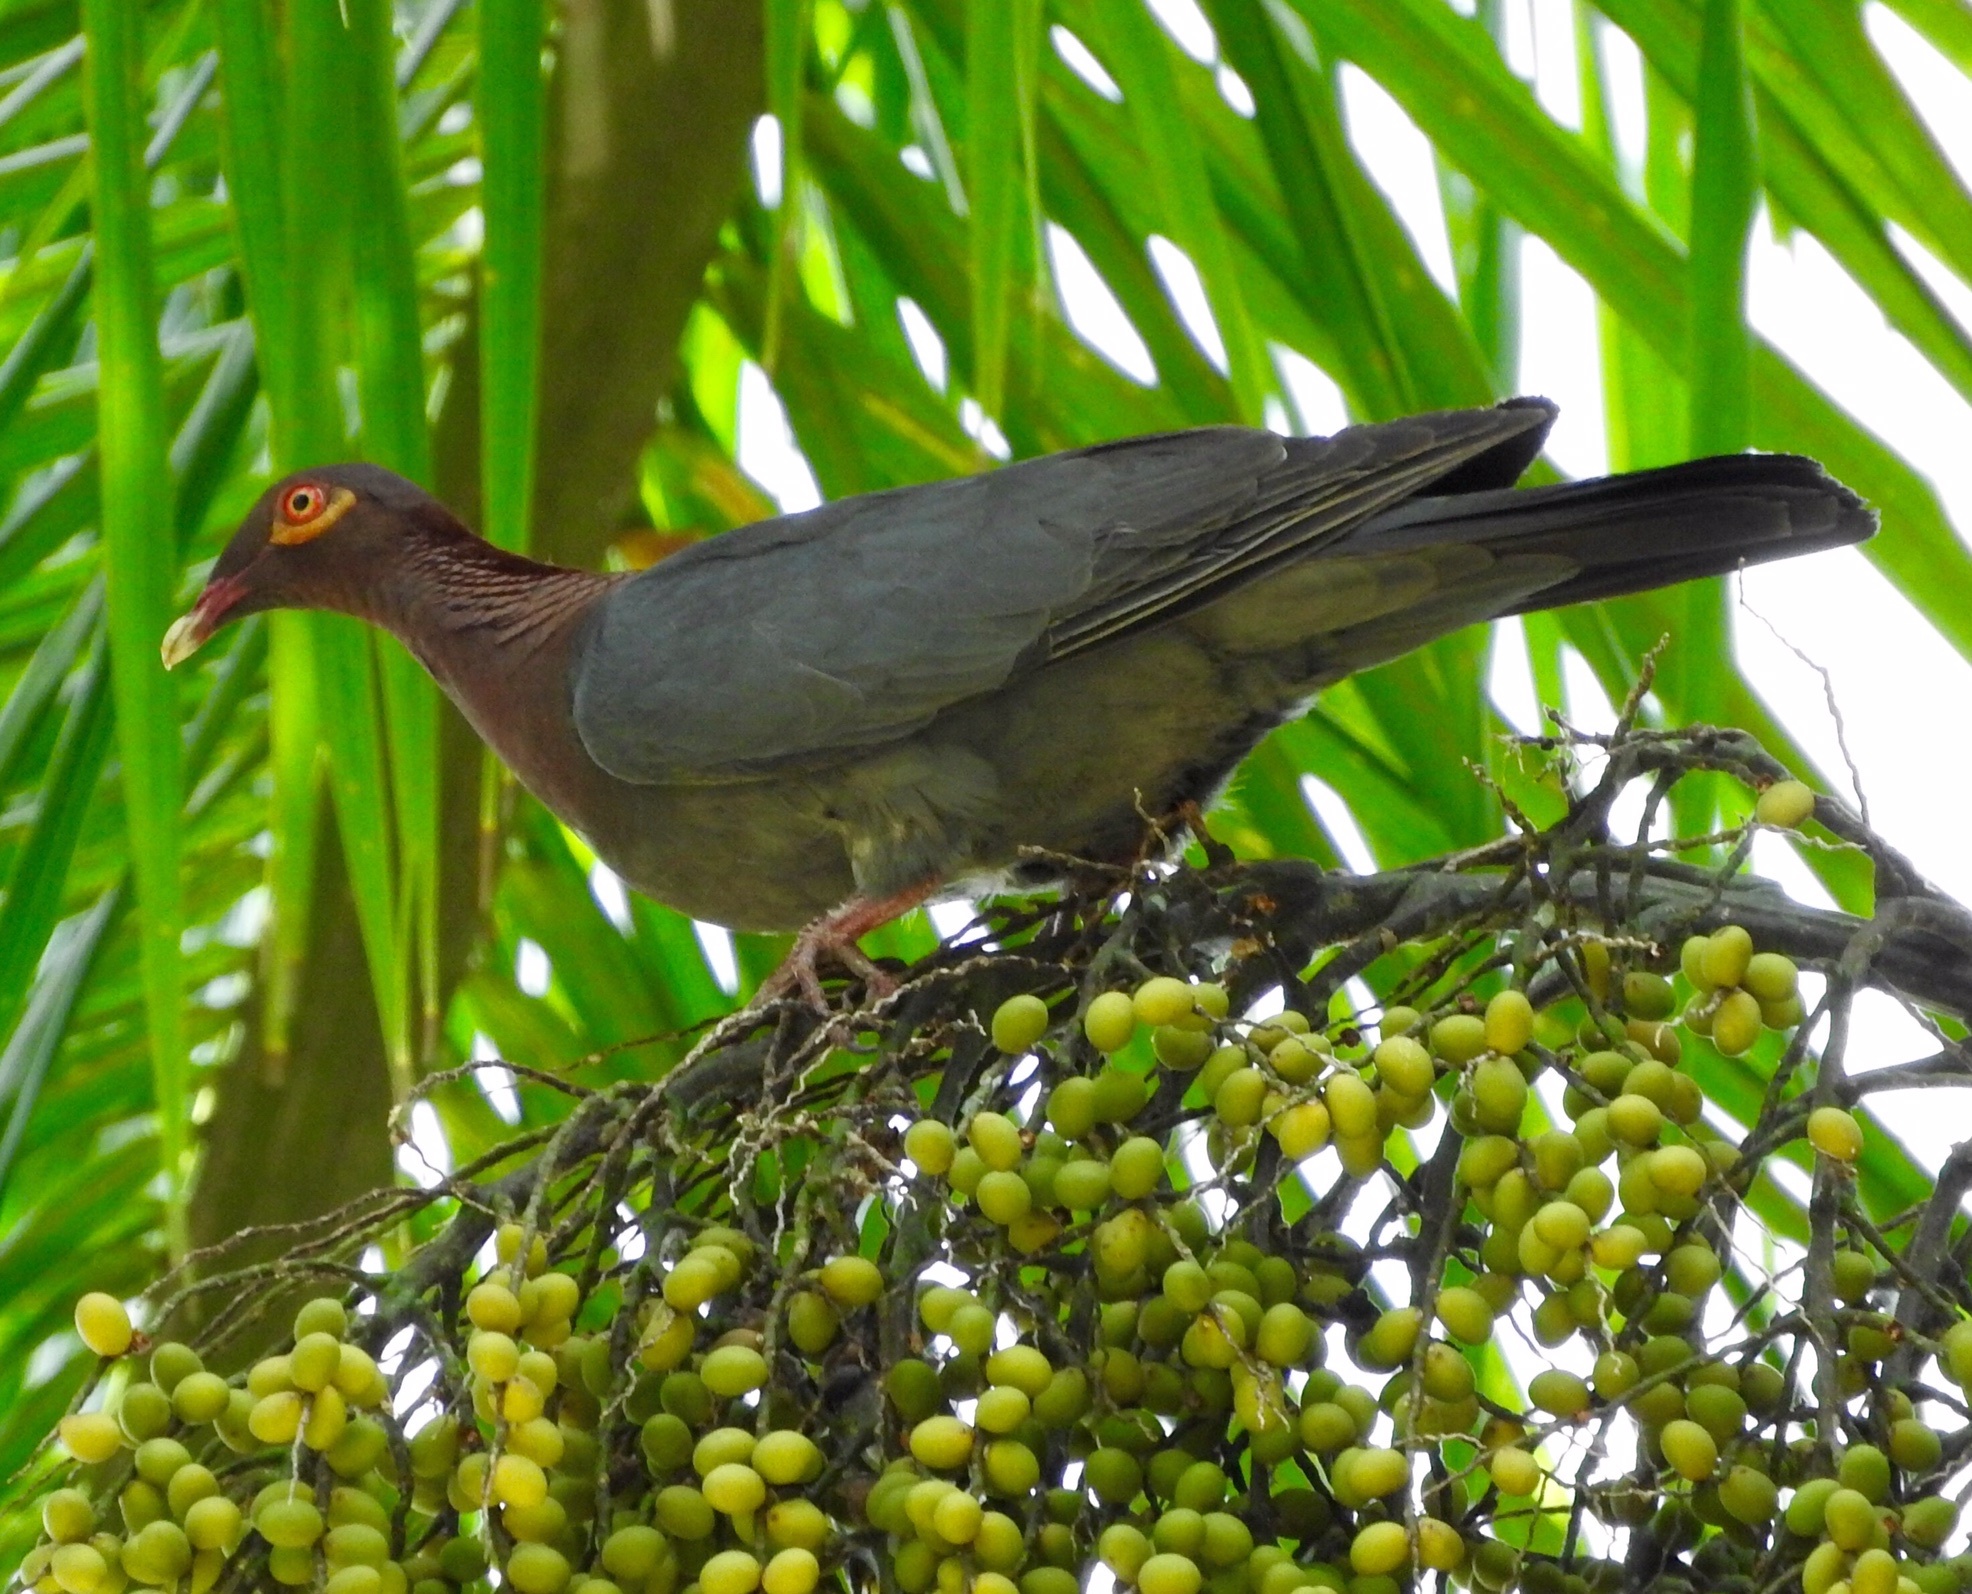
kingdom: Animalia
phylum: Chordata
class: Aves
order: Columbiformes
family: Columbidae
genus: Patagioenas
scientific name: Patagioenas squamosa
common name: Scaly-naped pigeon
